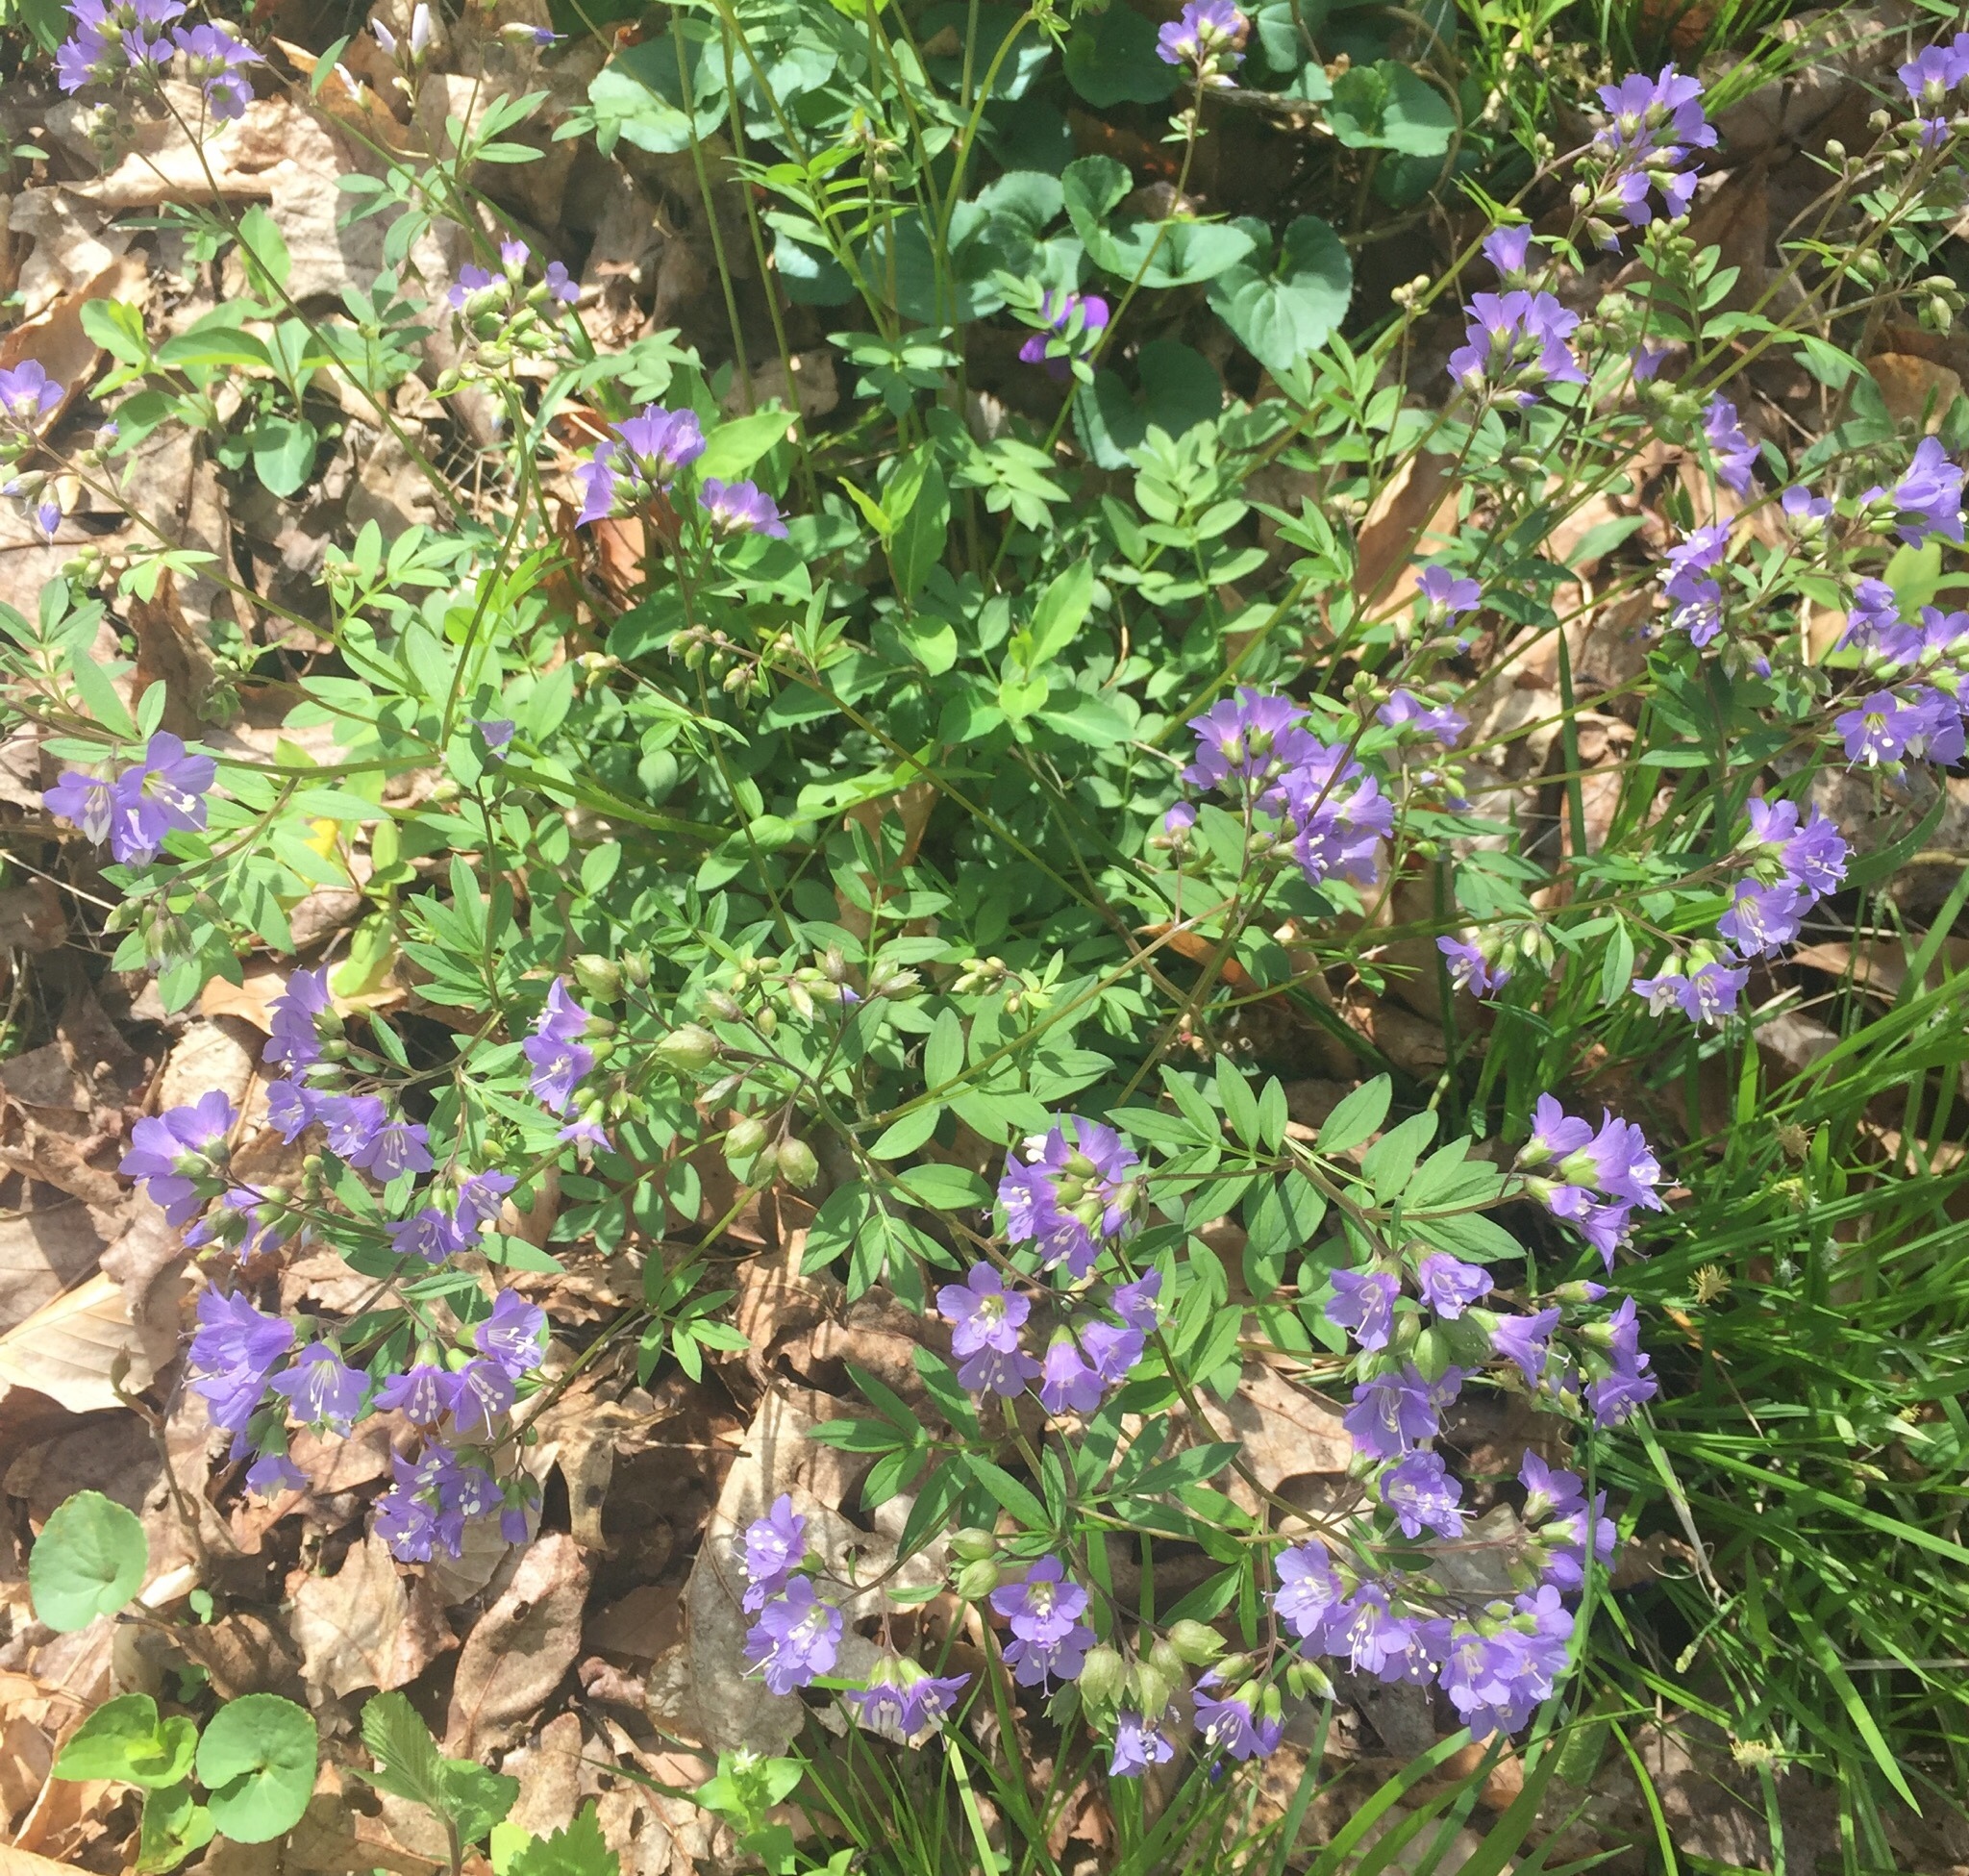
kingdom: Plantae
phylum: Tracheophyta
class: Magnoliopsida
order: Ericales
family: Polemoniaceae
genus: Polemonium
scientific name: Polemonium reptans
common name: Creeping jacob's-ladder
